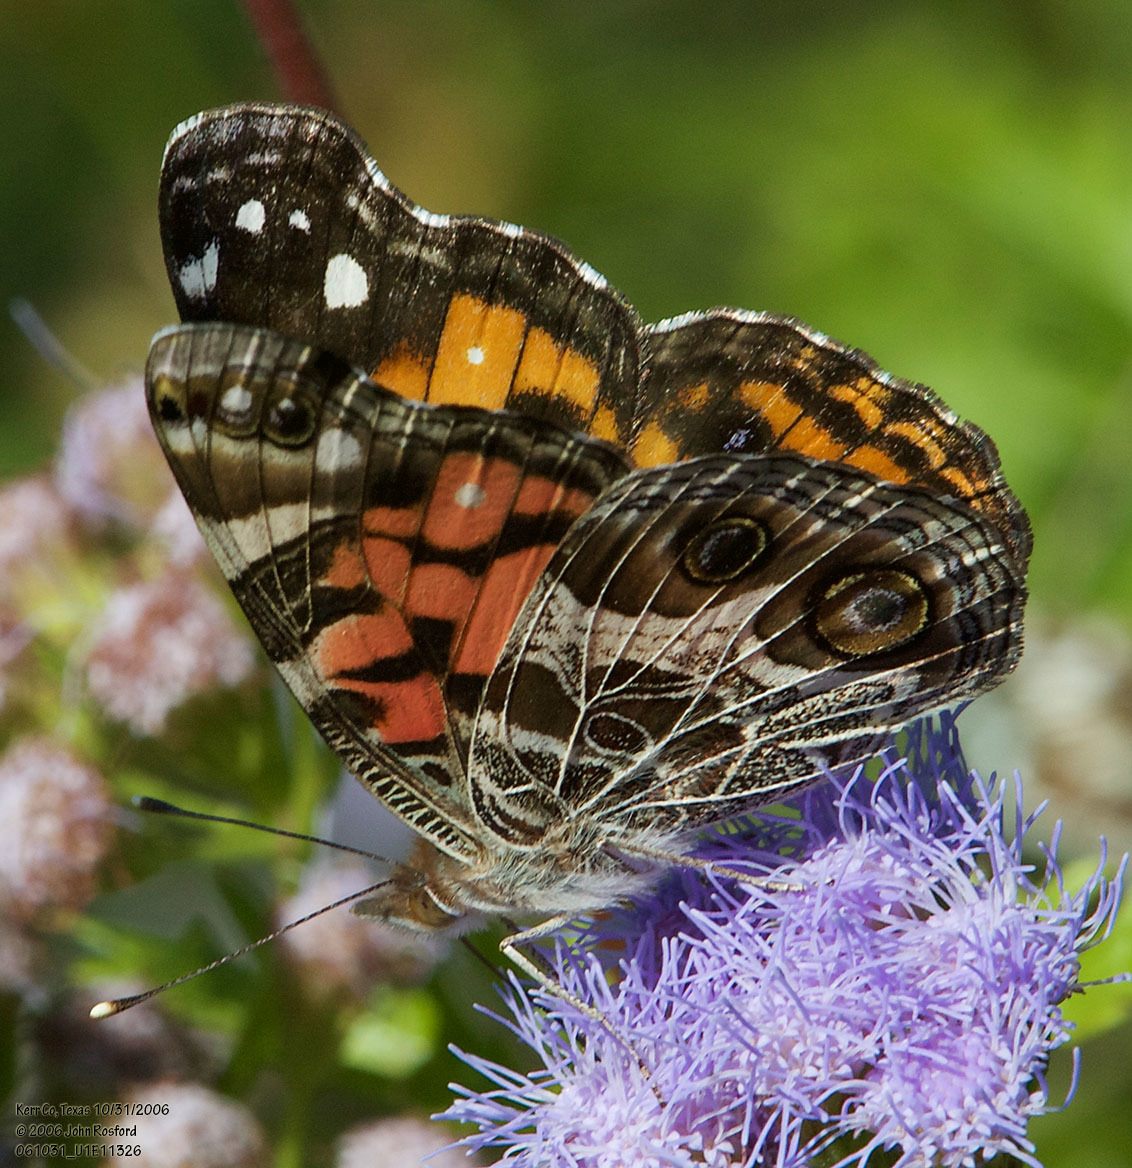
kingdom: Animalia
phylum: Arthropoda
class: Insecta
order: Lepidoptera
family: Nymphalidae
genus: Vanessa
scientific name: Vanessa virginiensis
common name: American lady
